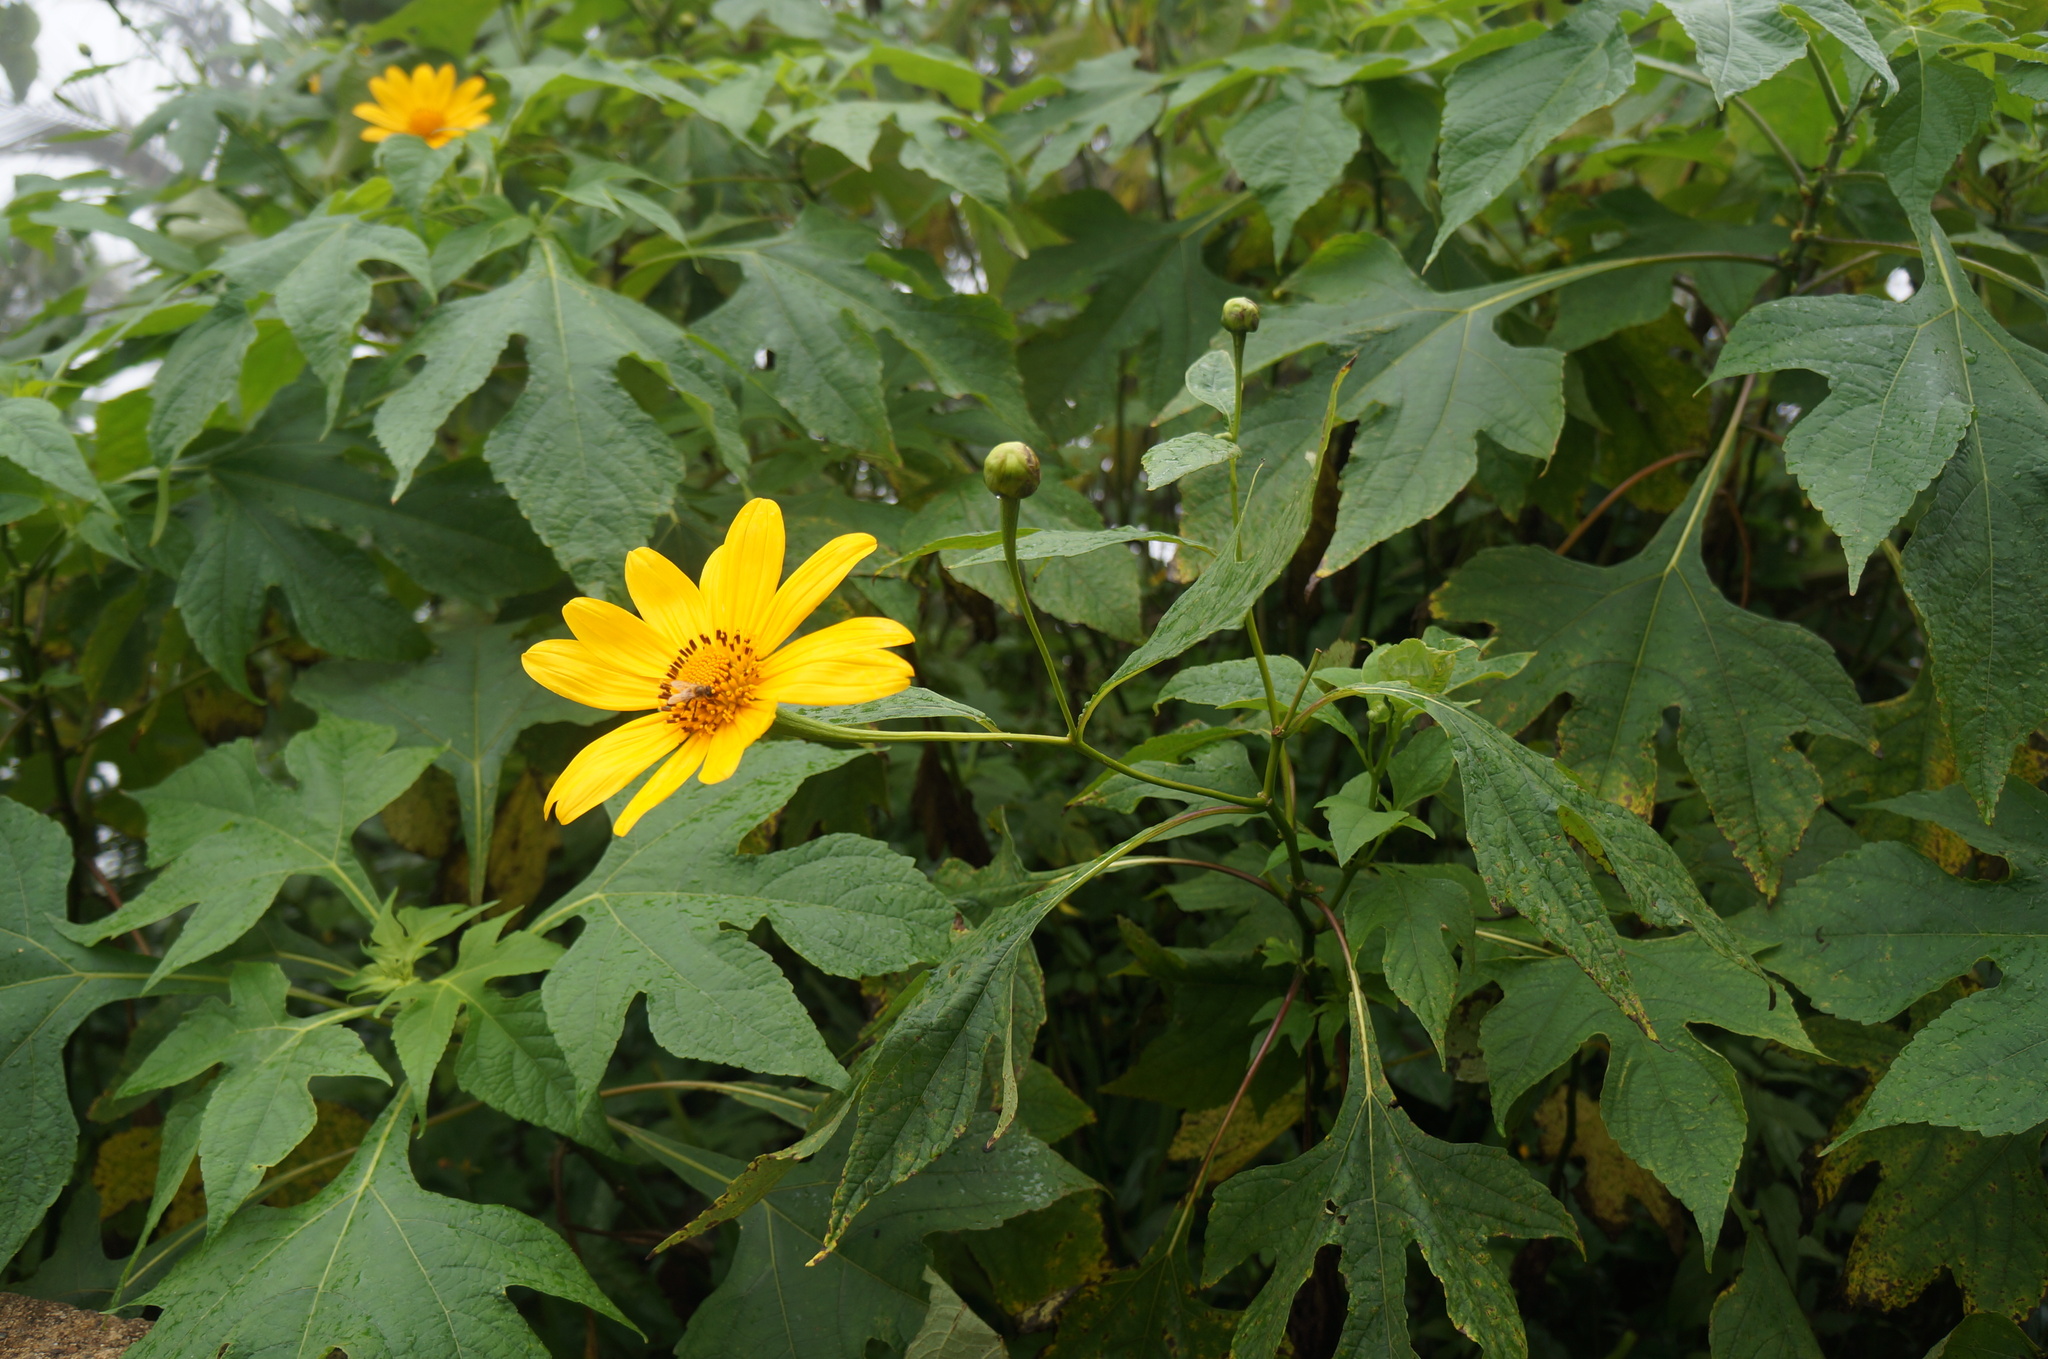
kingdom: Plantae
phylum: Tracheophyta
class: Magnoliopsida
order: Asterales
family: Asteraceae
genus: Tithonia
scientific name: Tithonia diversifolia
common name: Tree marigold
